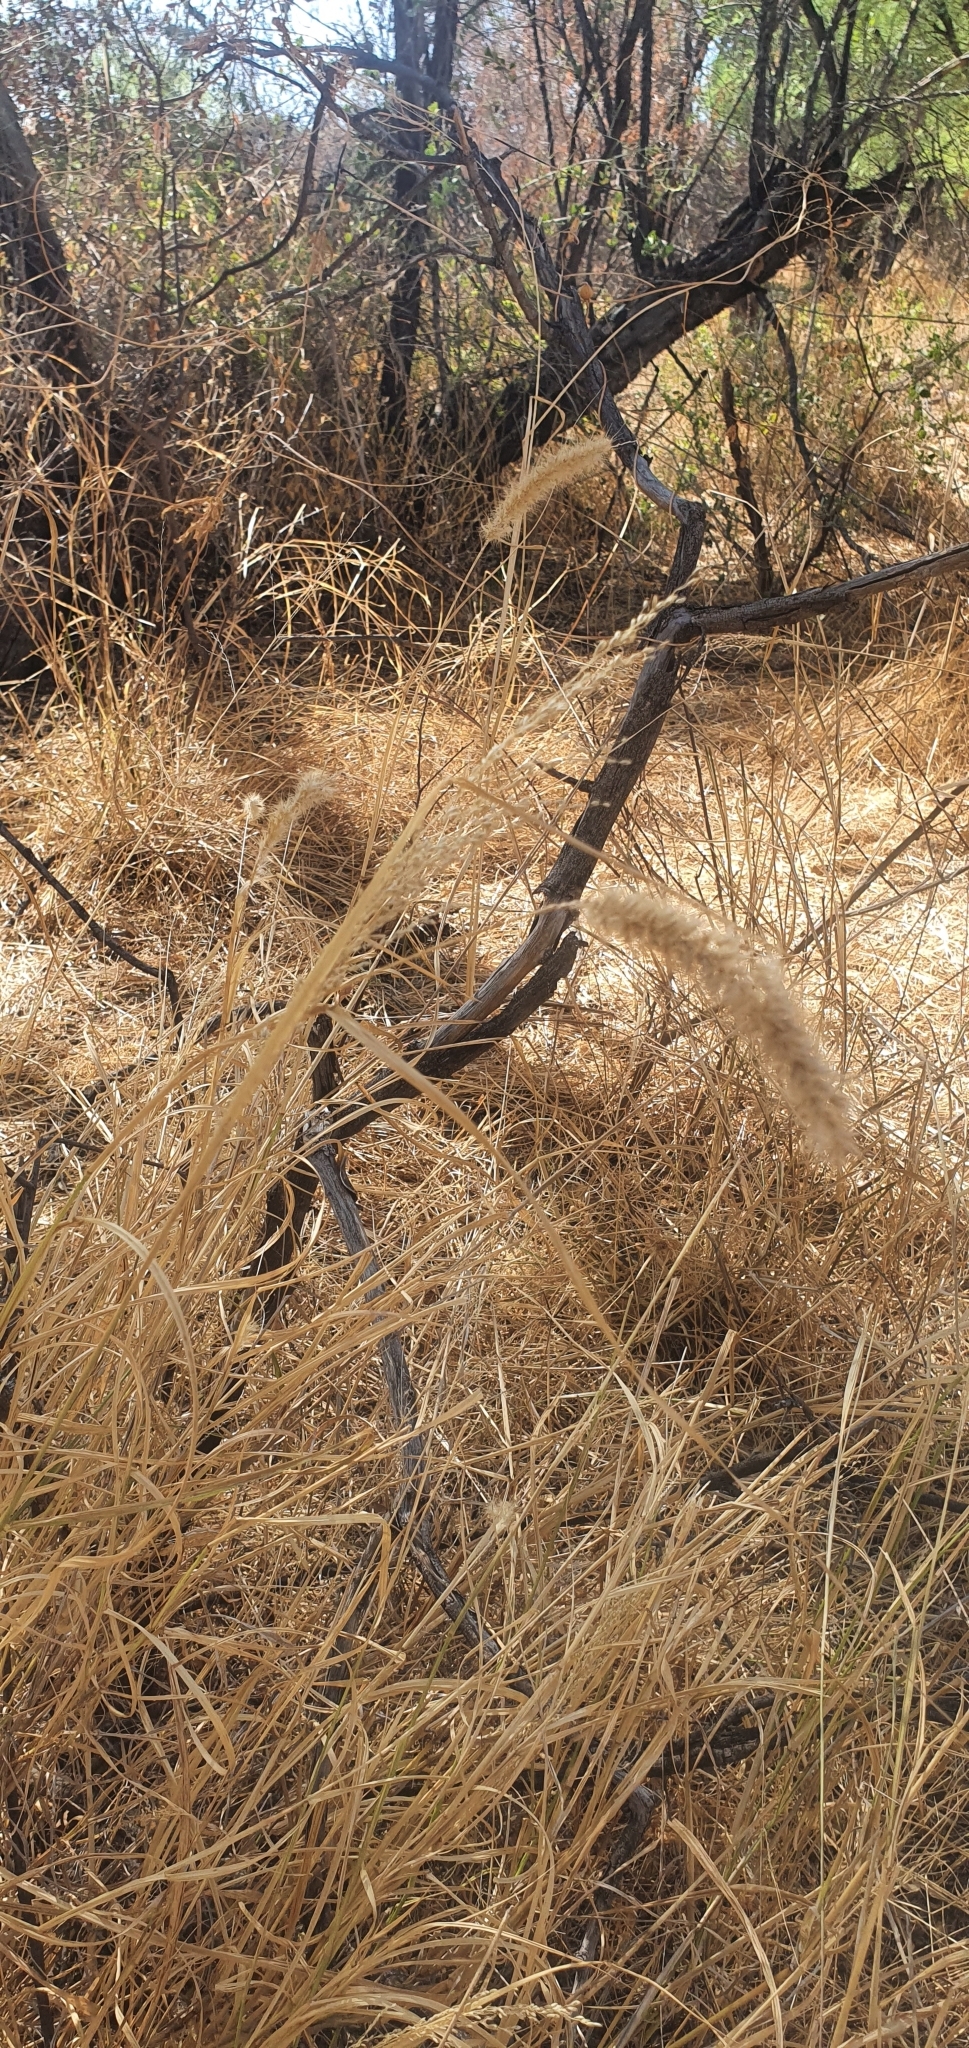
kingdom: Plantae
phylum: Tracheophyta
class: Liliopsida
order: Poales
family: Poaceae
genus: Cenchrus
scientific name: Cenchrus ciliaris
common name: Buffelgrass
